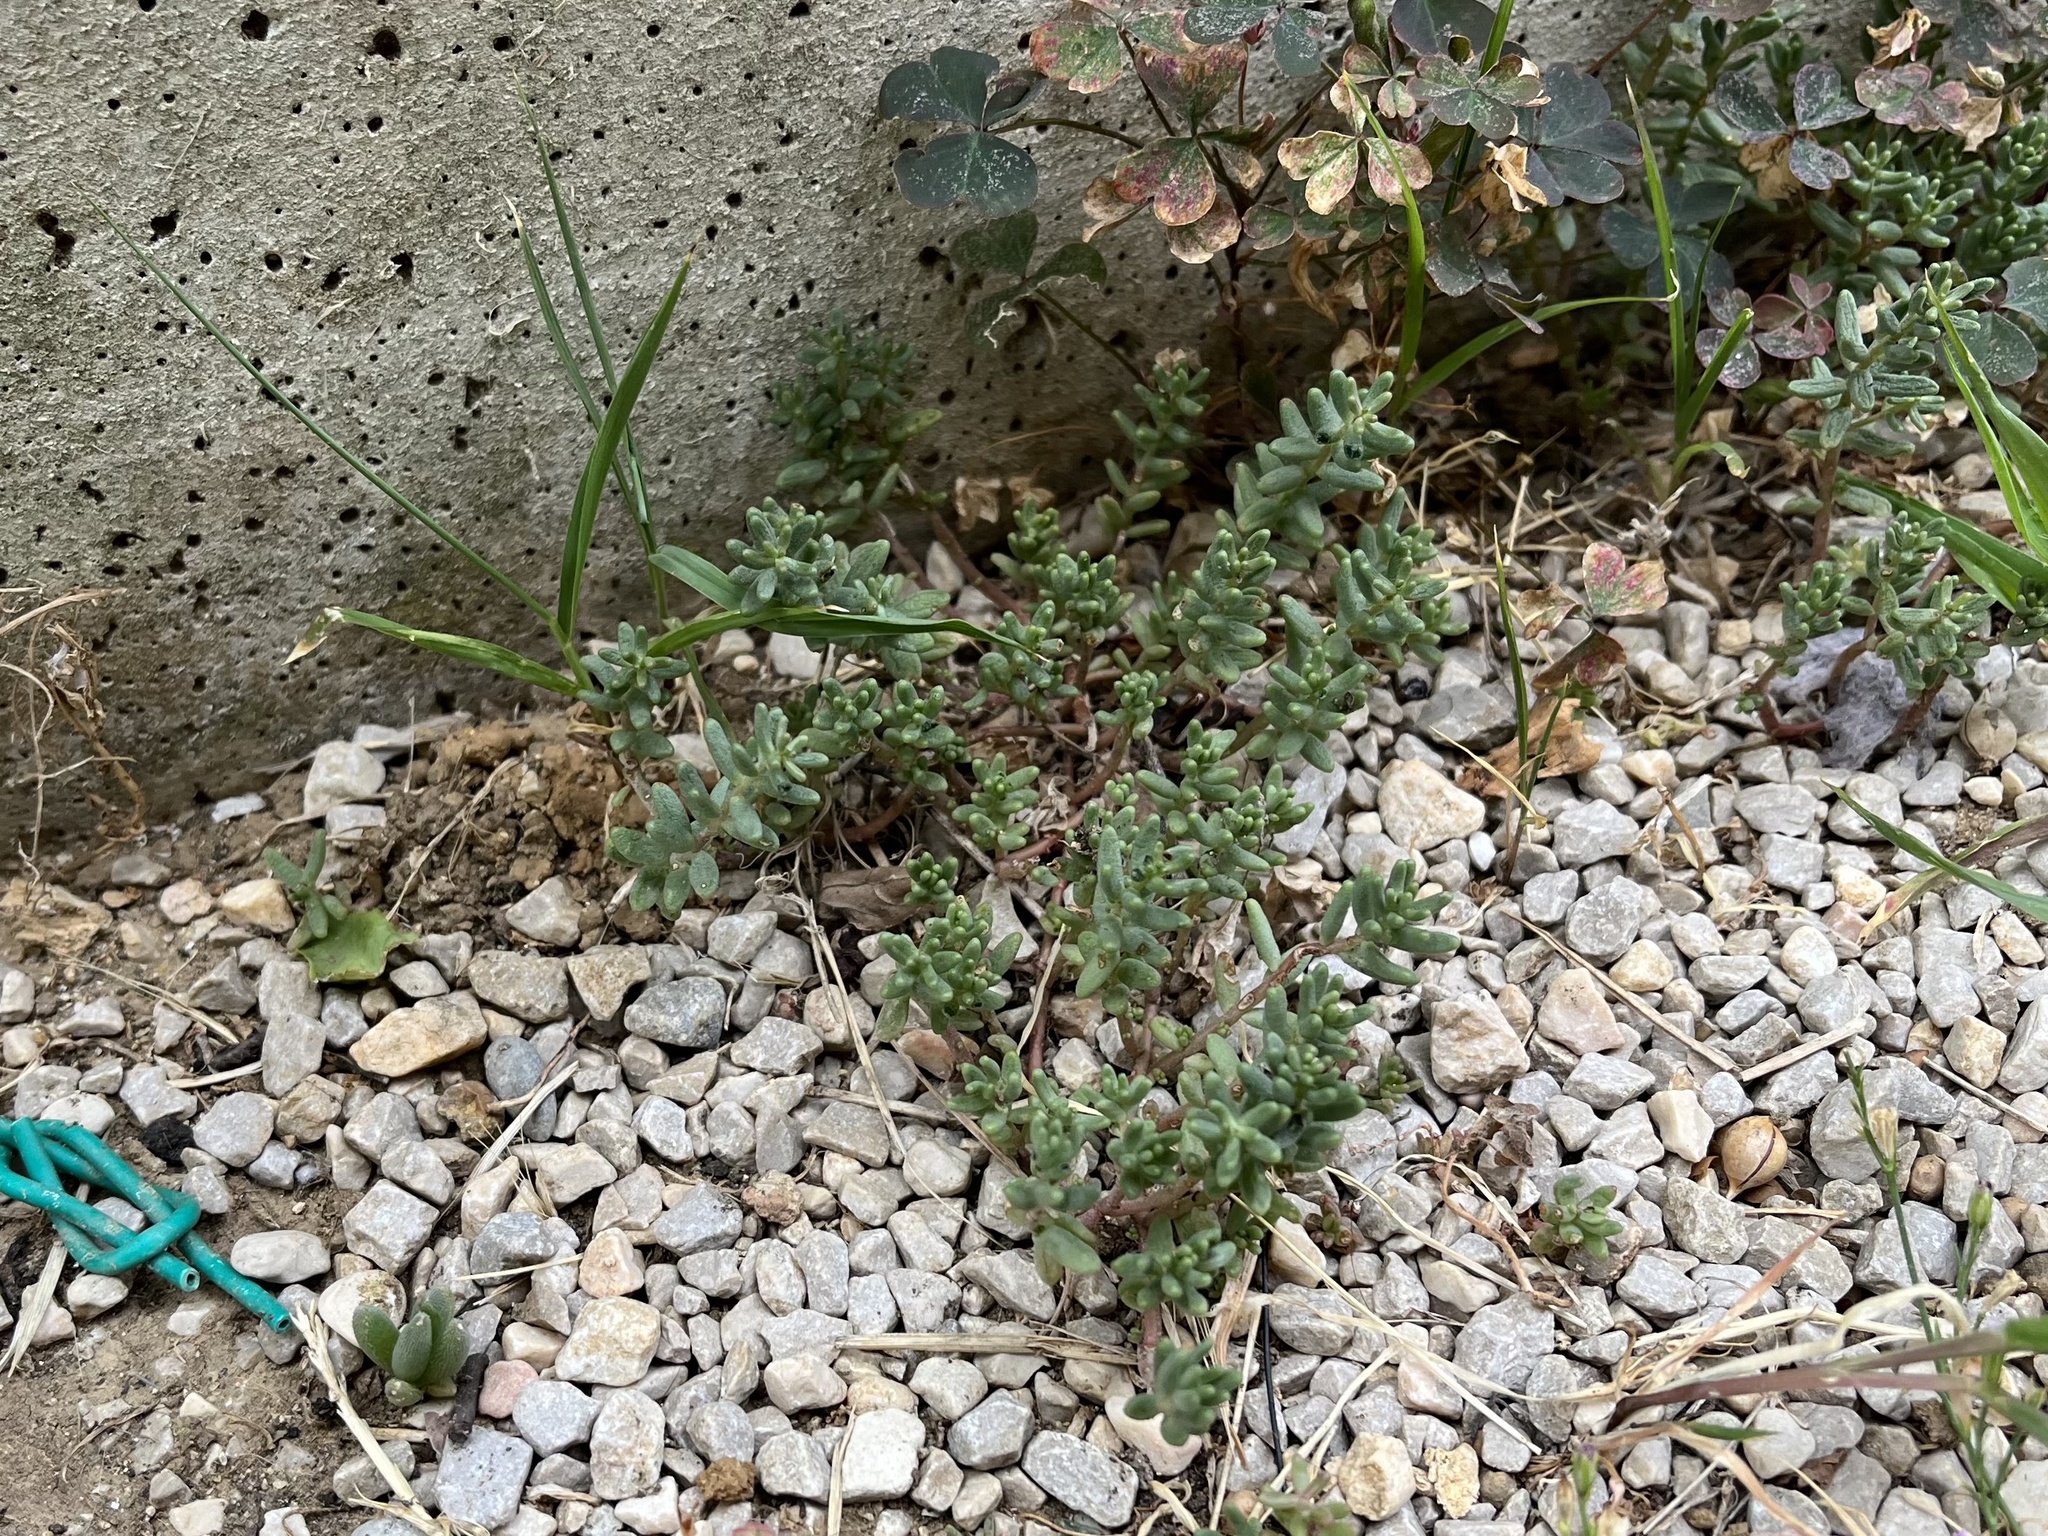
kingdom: Plantae
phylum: Tracheophyta
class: Magnoliopsida
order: Saxifragales
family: Crassulaceae
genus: Sedum
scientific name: Sedum album
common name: White stonecrop
